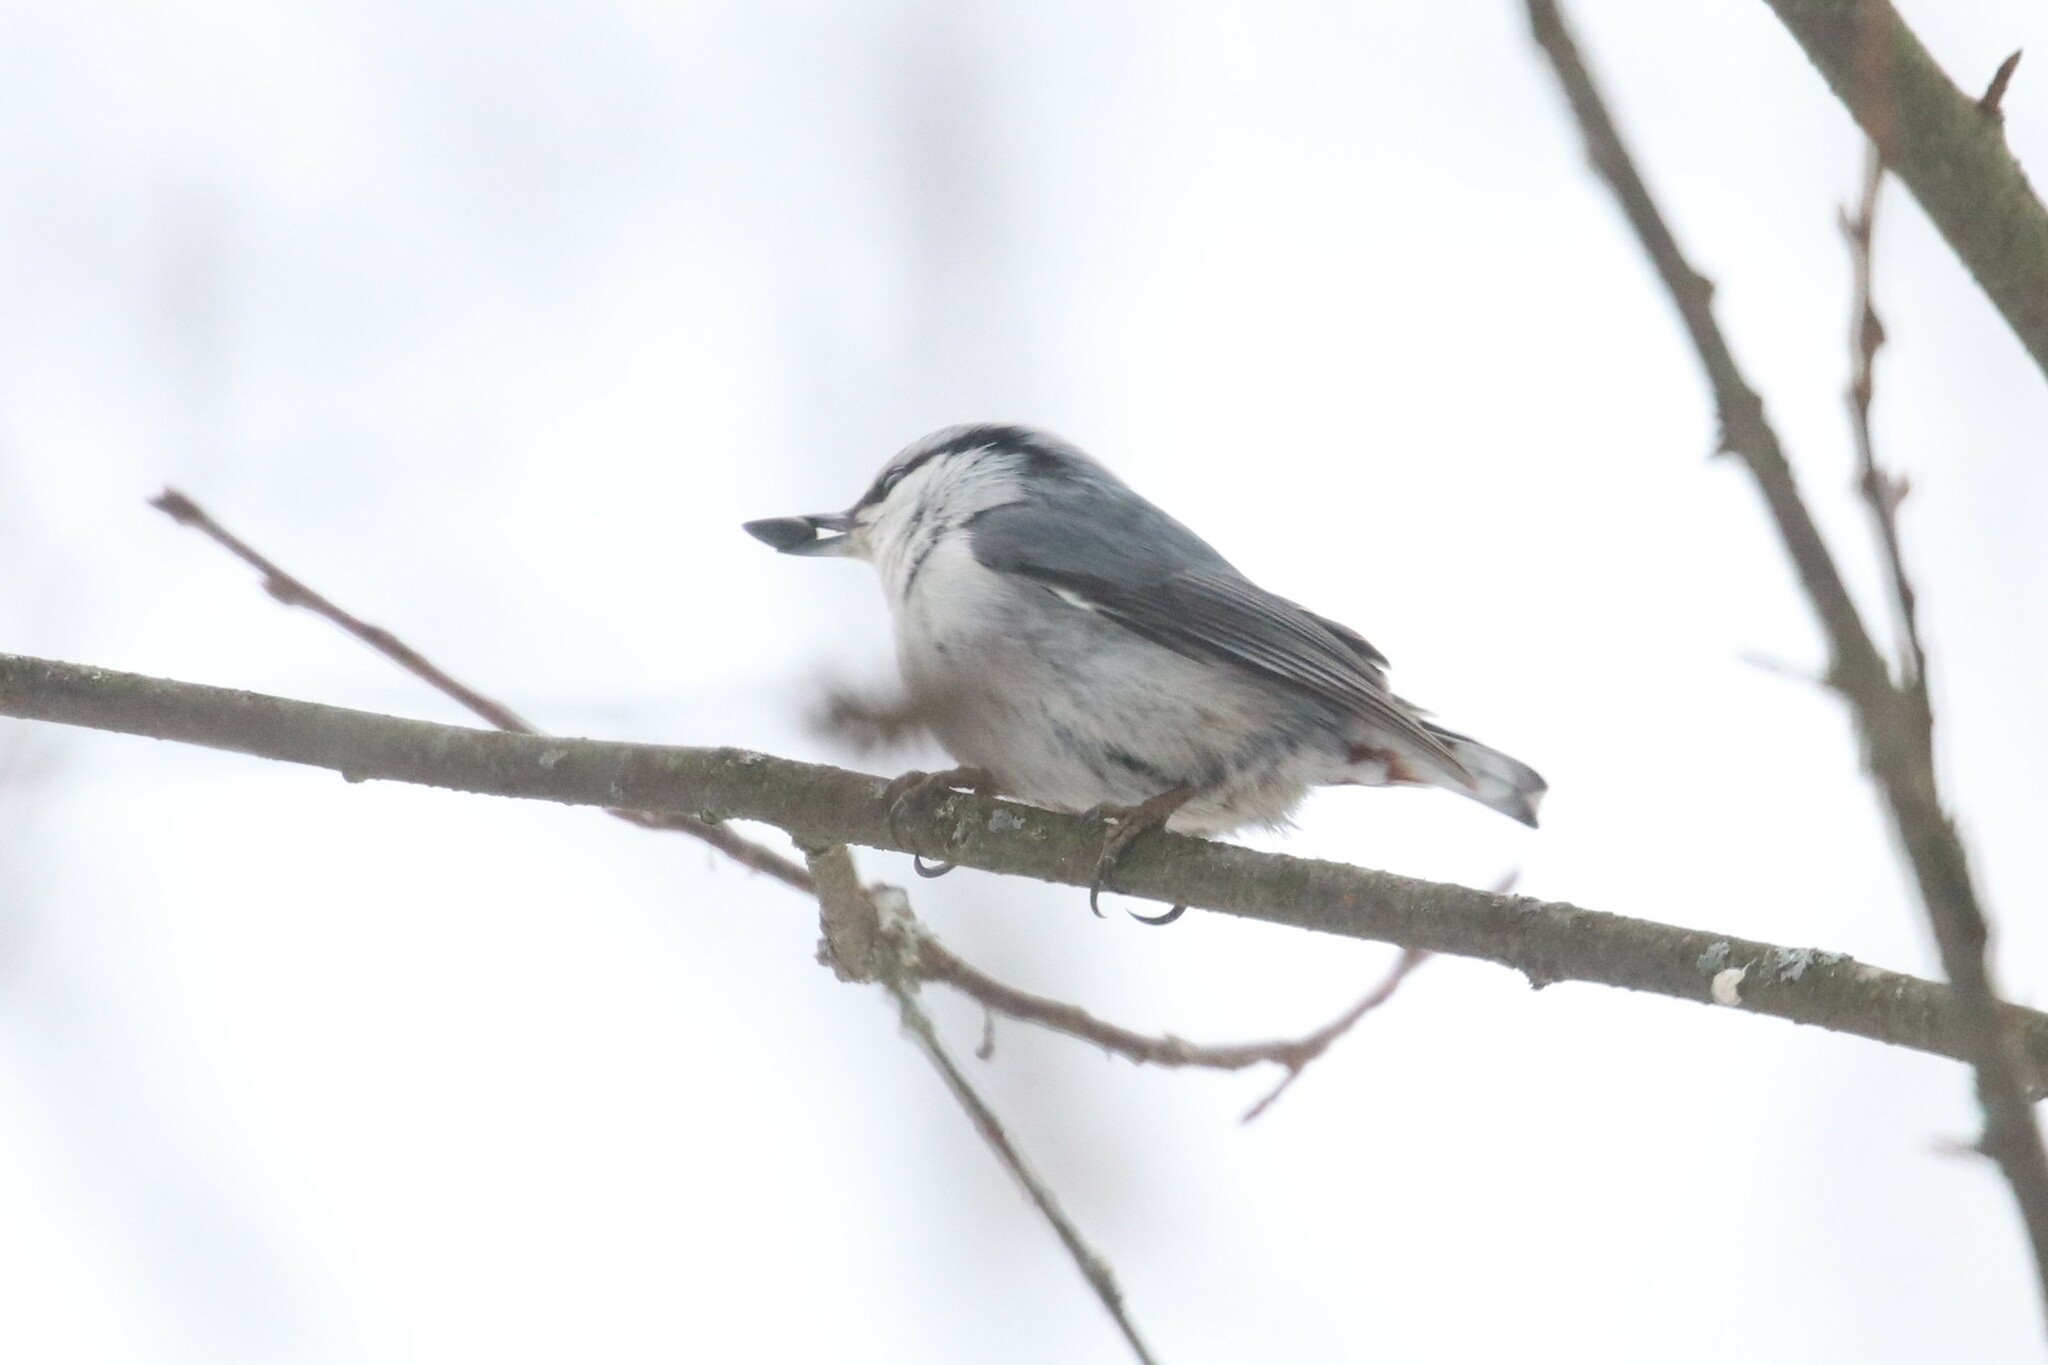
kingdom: Animalia
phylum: Chordata
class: Aves
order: Passeriformes
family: Sittidae
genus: Sitta
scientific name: Sitta europaea
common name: Eurasian nuthatch
